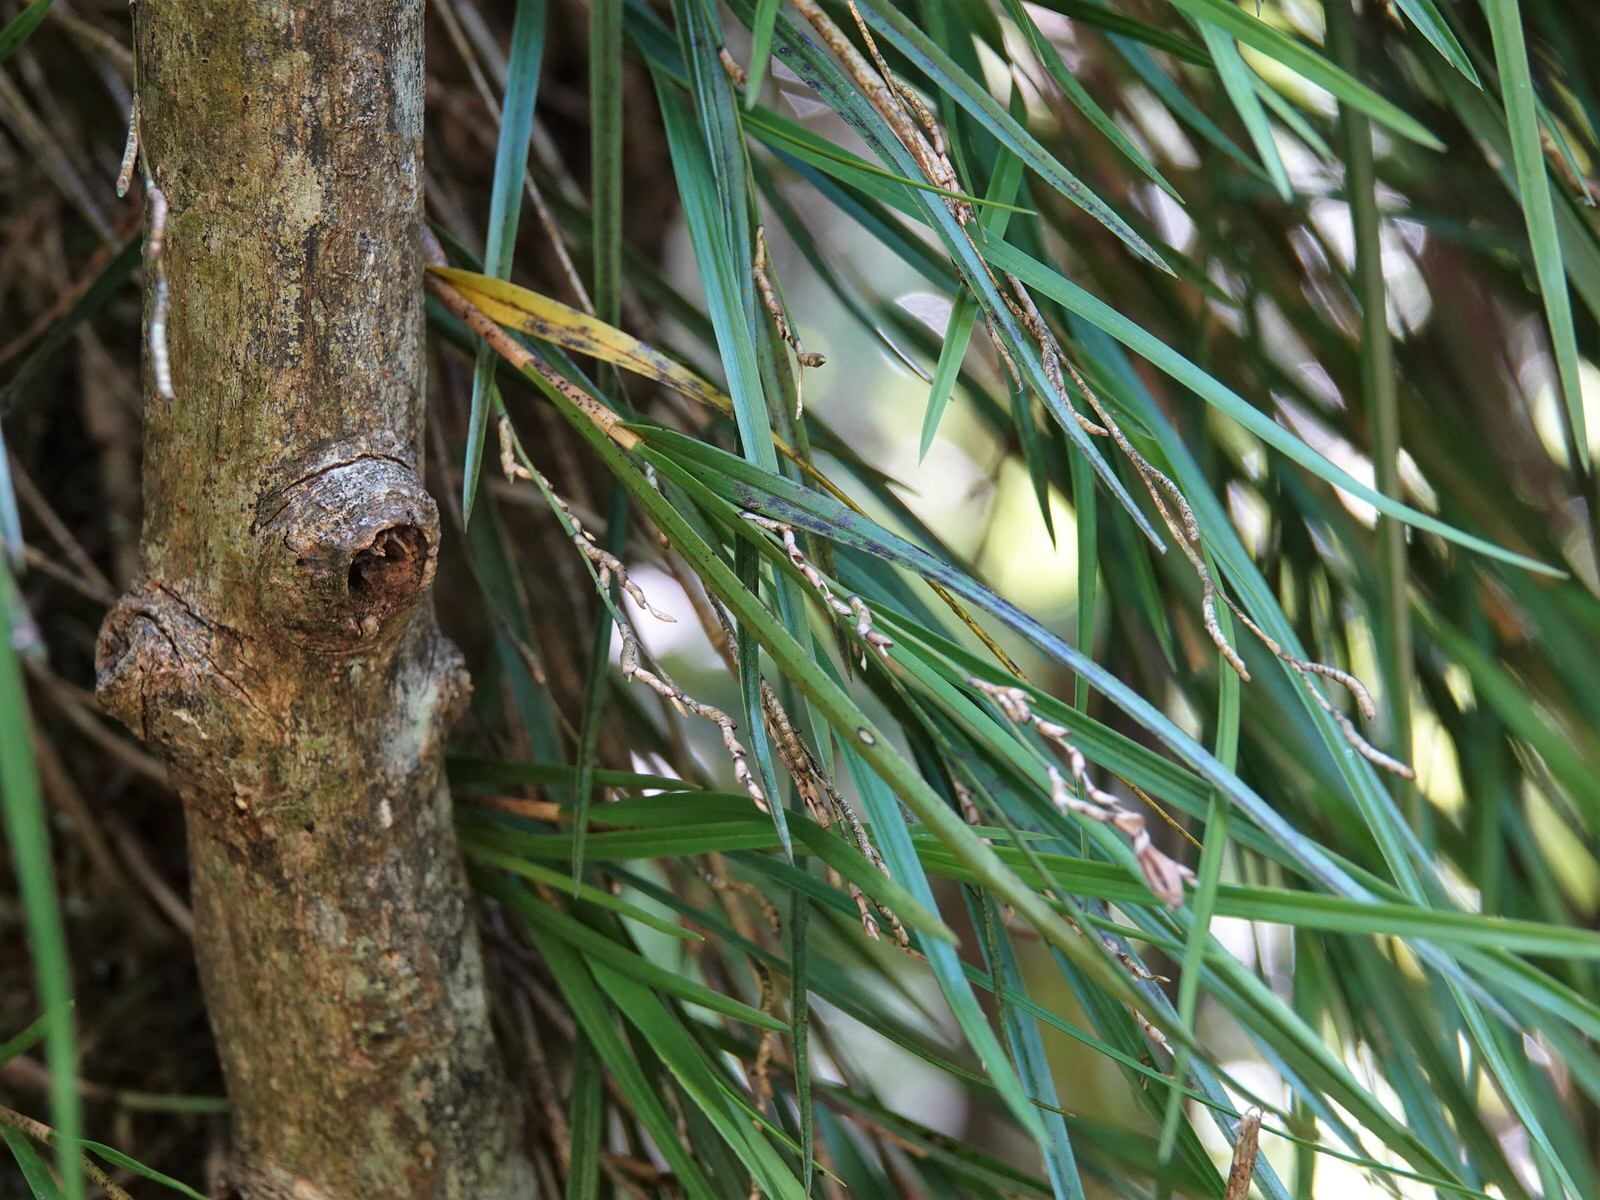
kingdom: Plantae
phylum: Tracheophyta
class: Liliopsida
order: Asparagales
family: Orchidaceae
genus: Earina
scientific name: Earina mucronata
